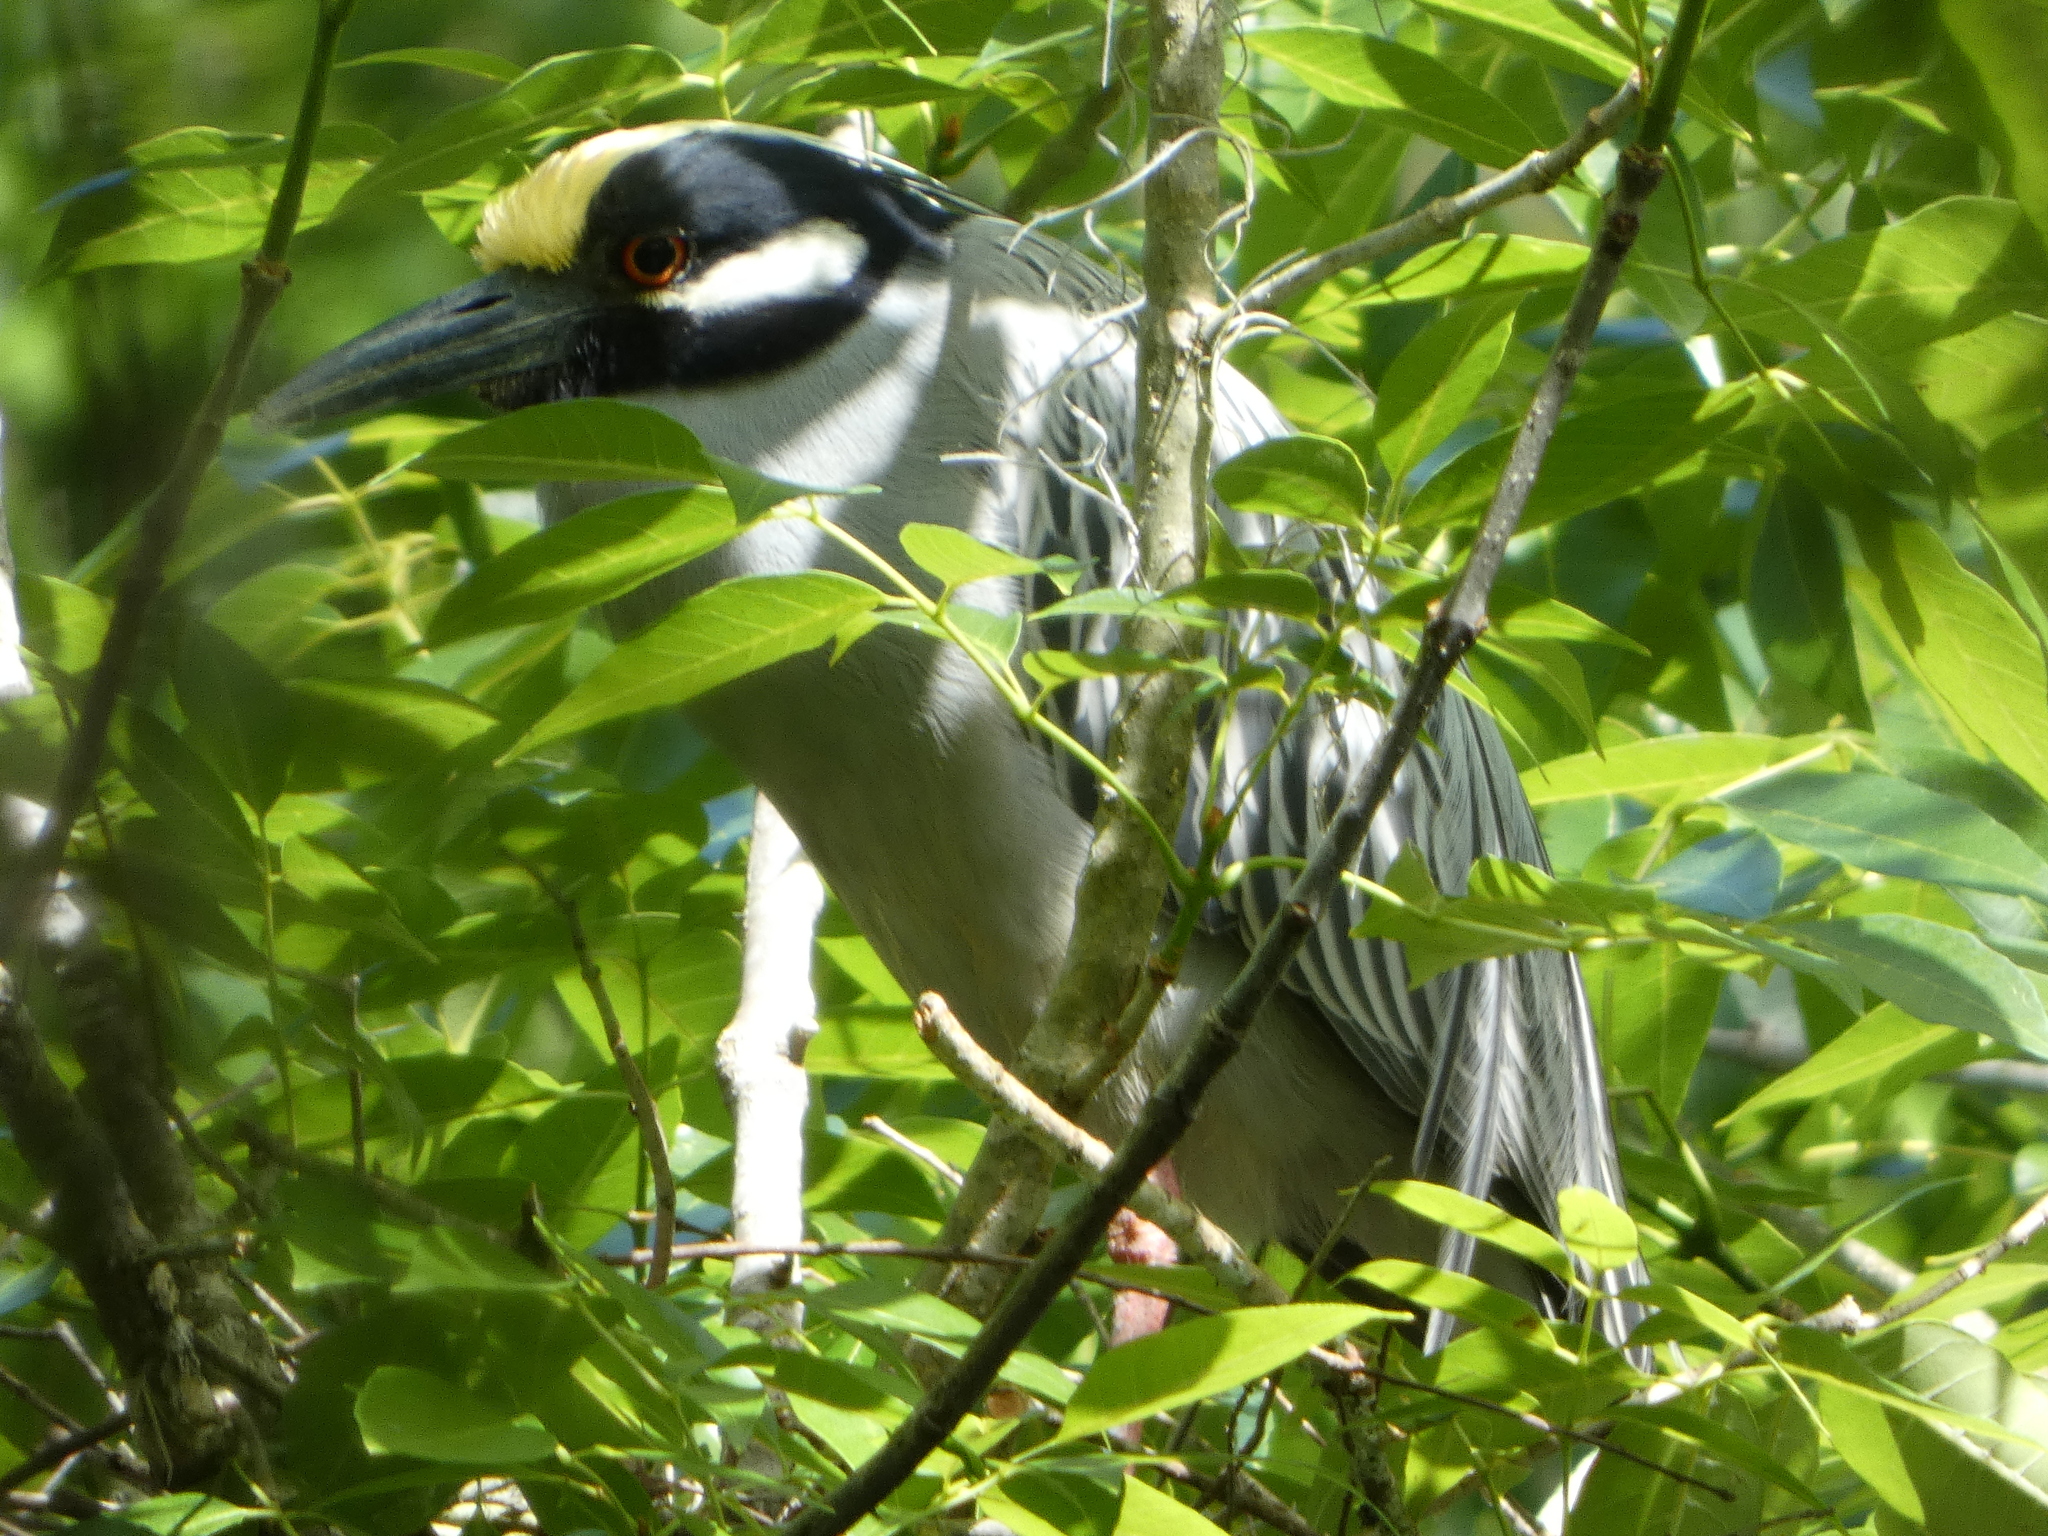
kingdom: Animalia
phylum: Chordata
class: Aves
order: Pelecaniformes
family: Ardeidae
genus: Nyctanassa
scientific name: Nyctanassa violacea
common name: Yellow-crowned night heron
